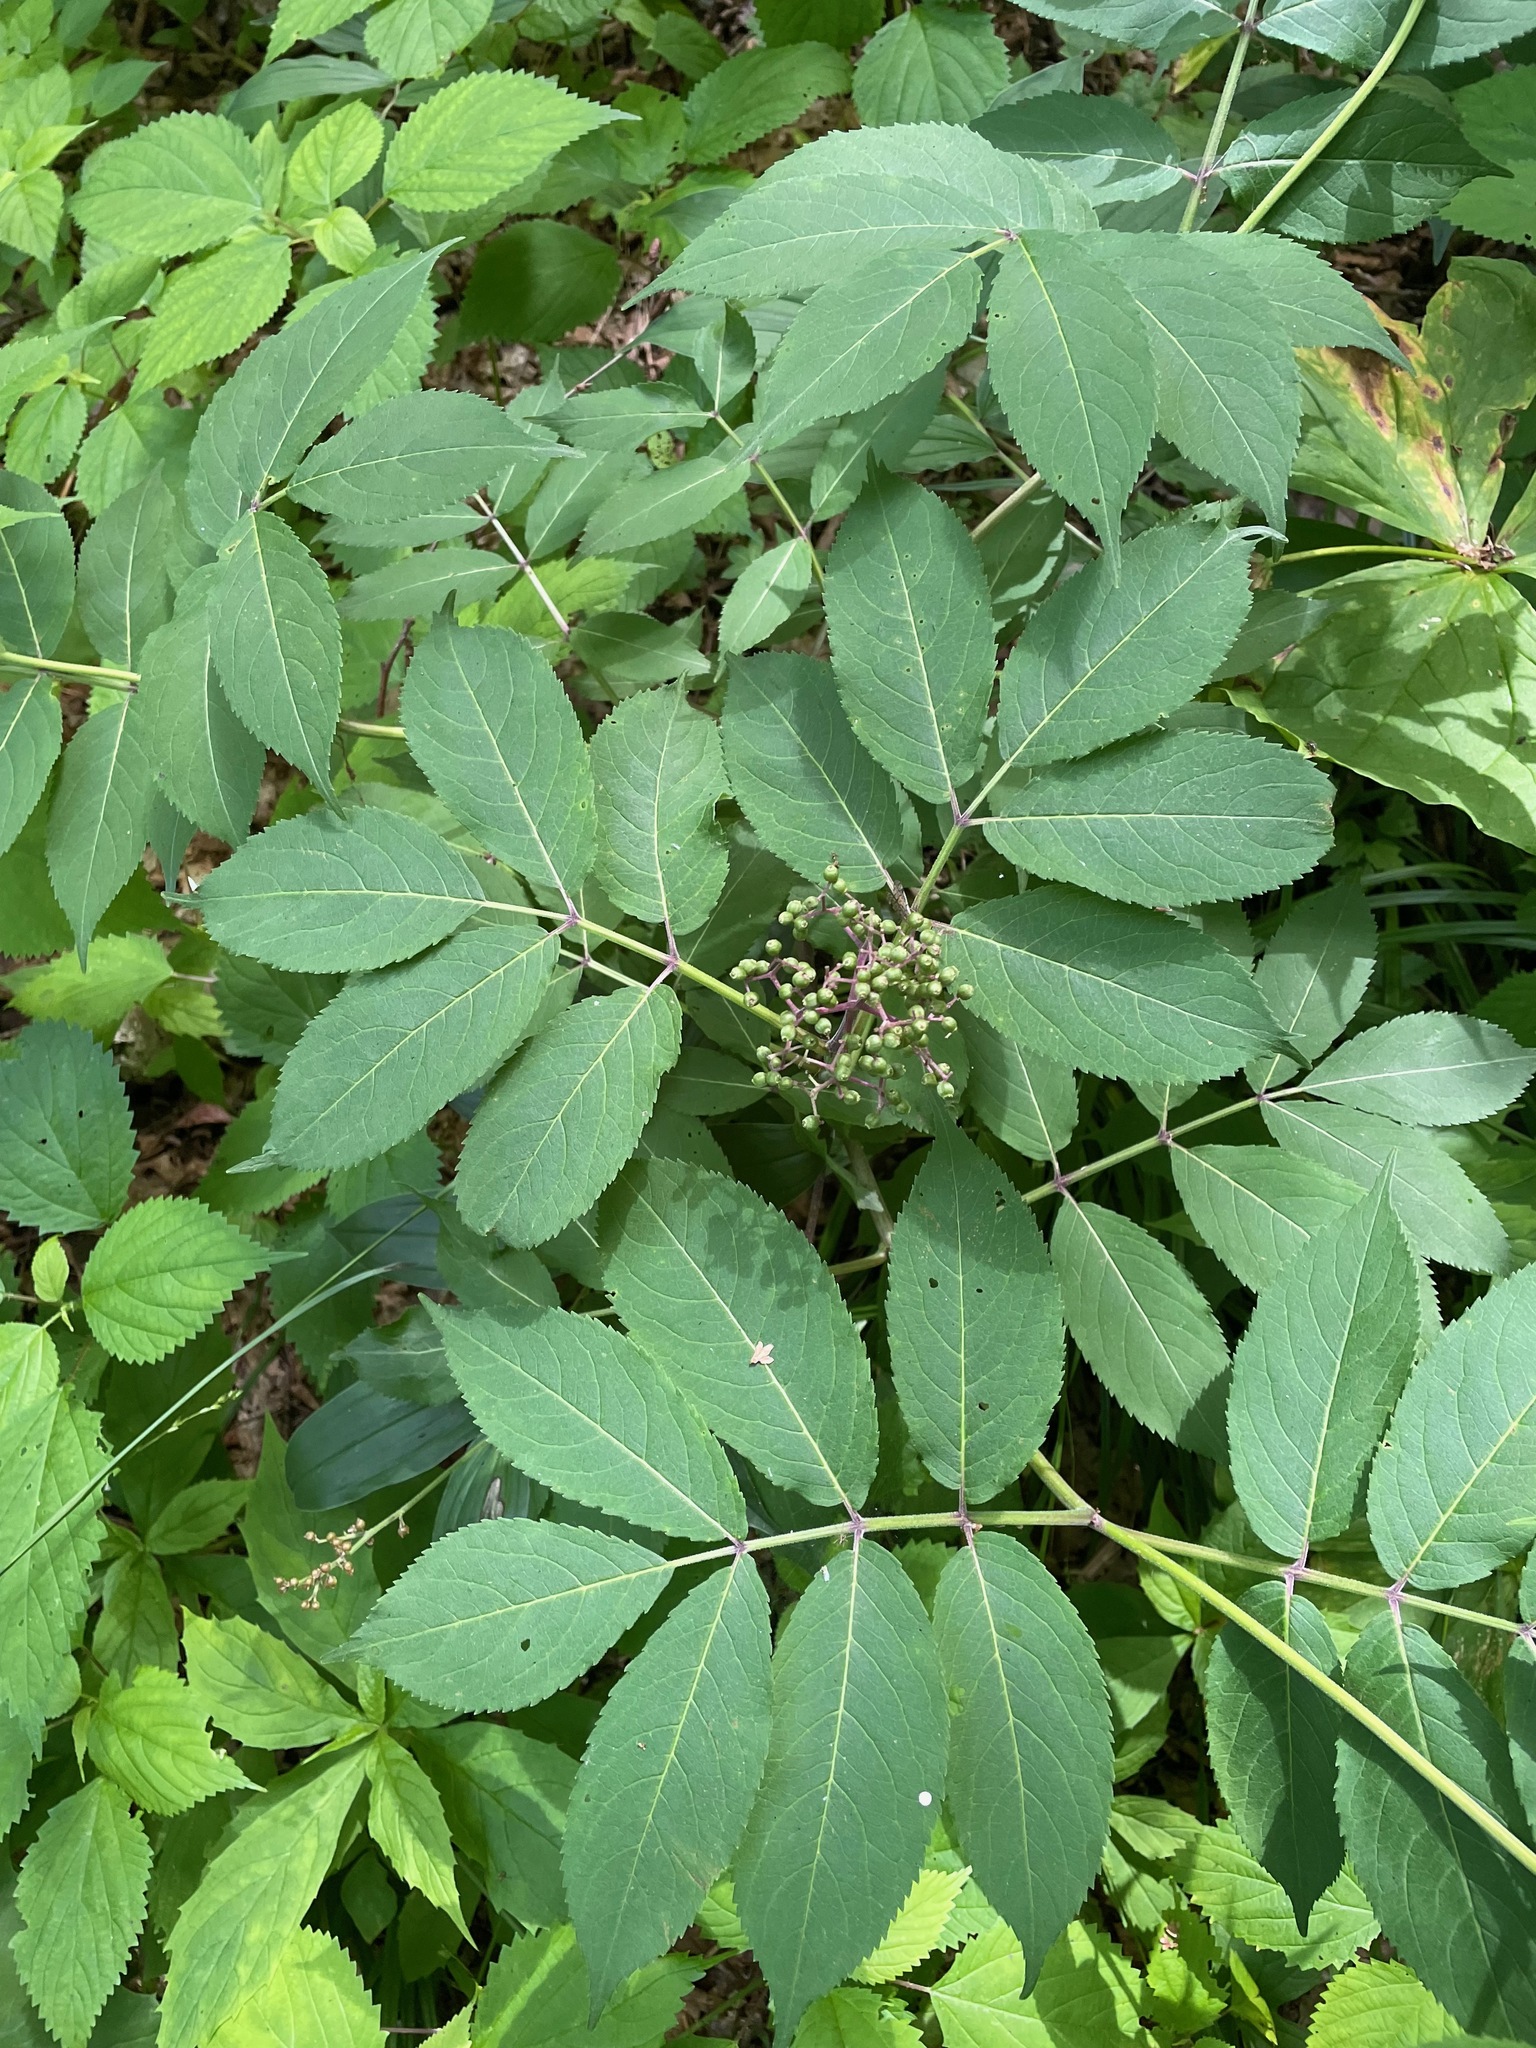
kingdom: Plantae
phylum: Tracheophyta
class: Magnoliopsida
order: Dipsacales
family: Viburnaceae
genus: Sambucus
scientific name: Sambucus racemosa
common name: Red-berried elder
